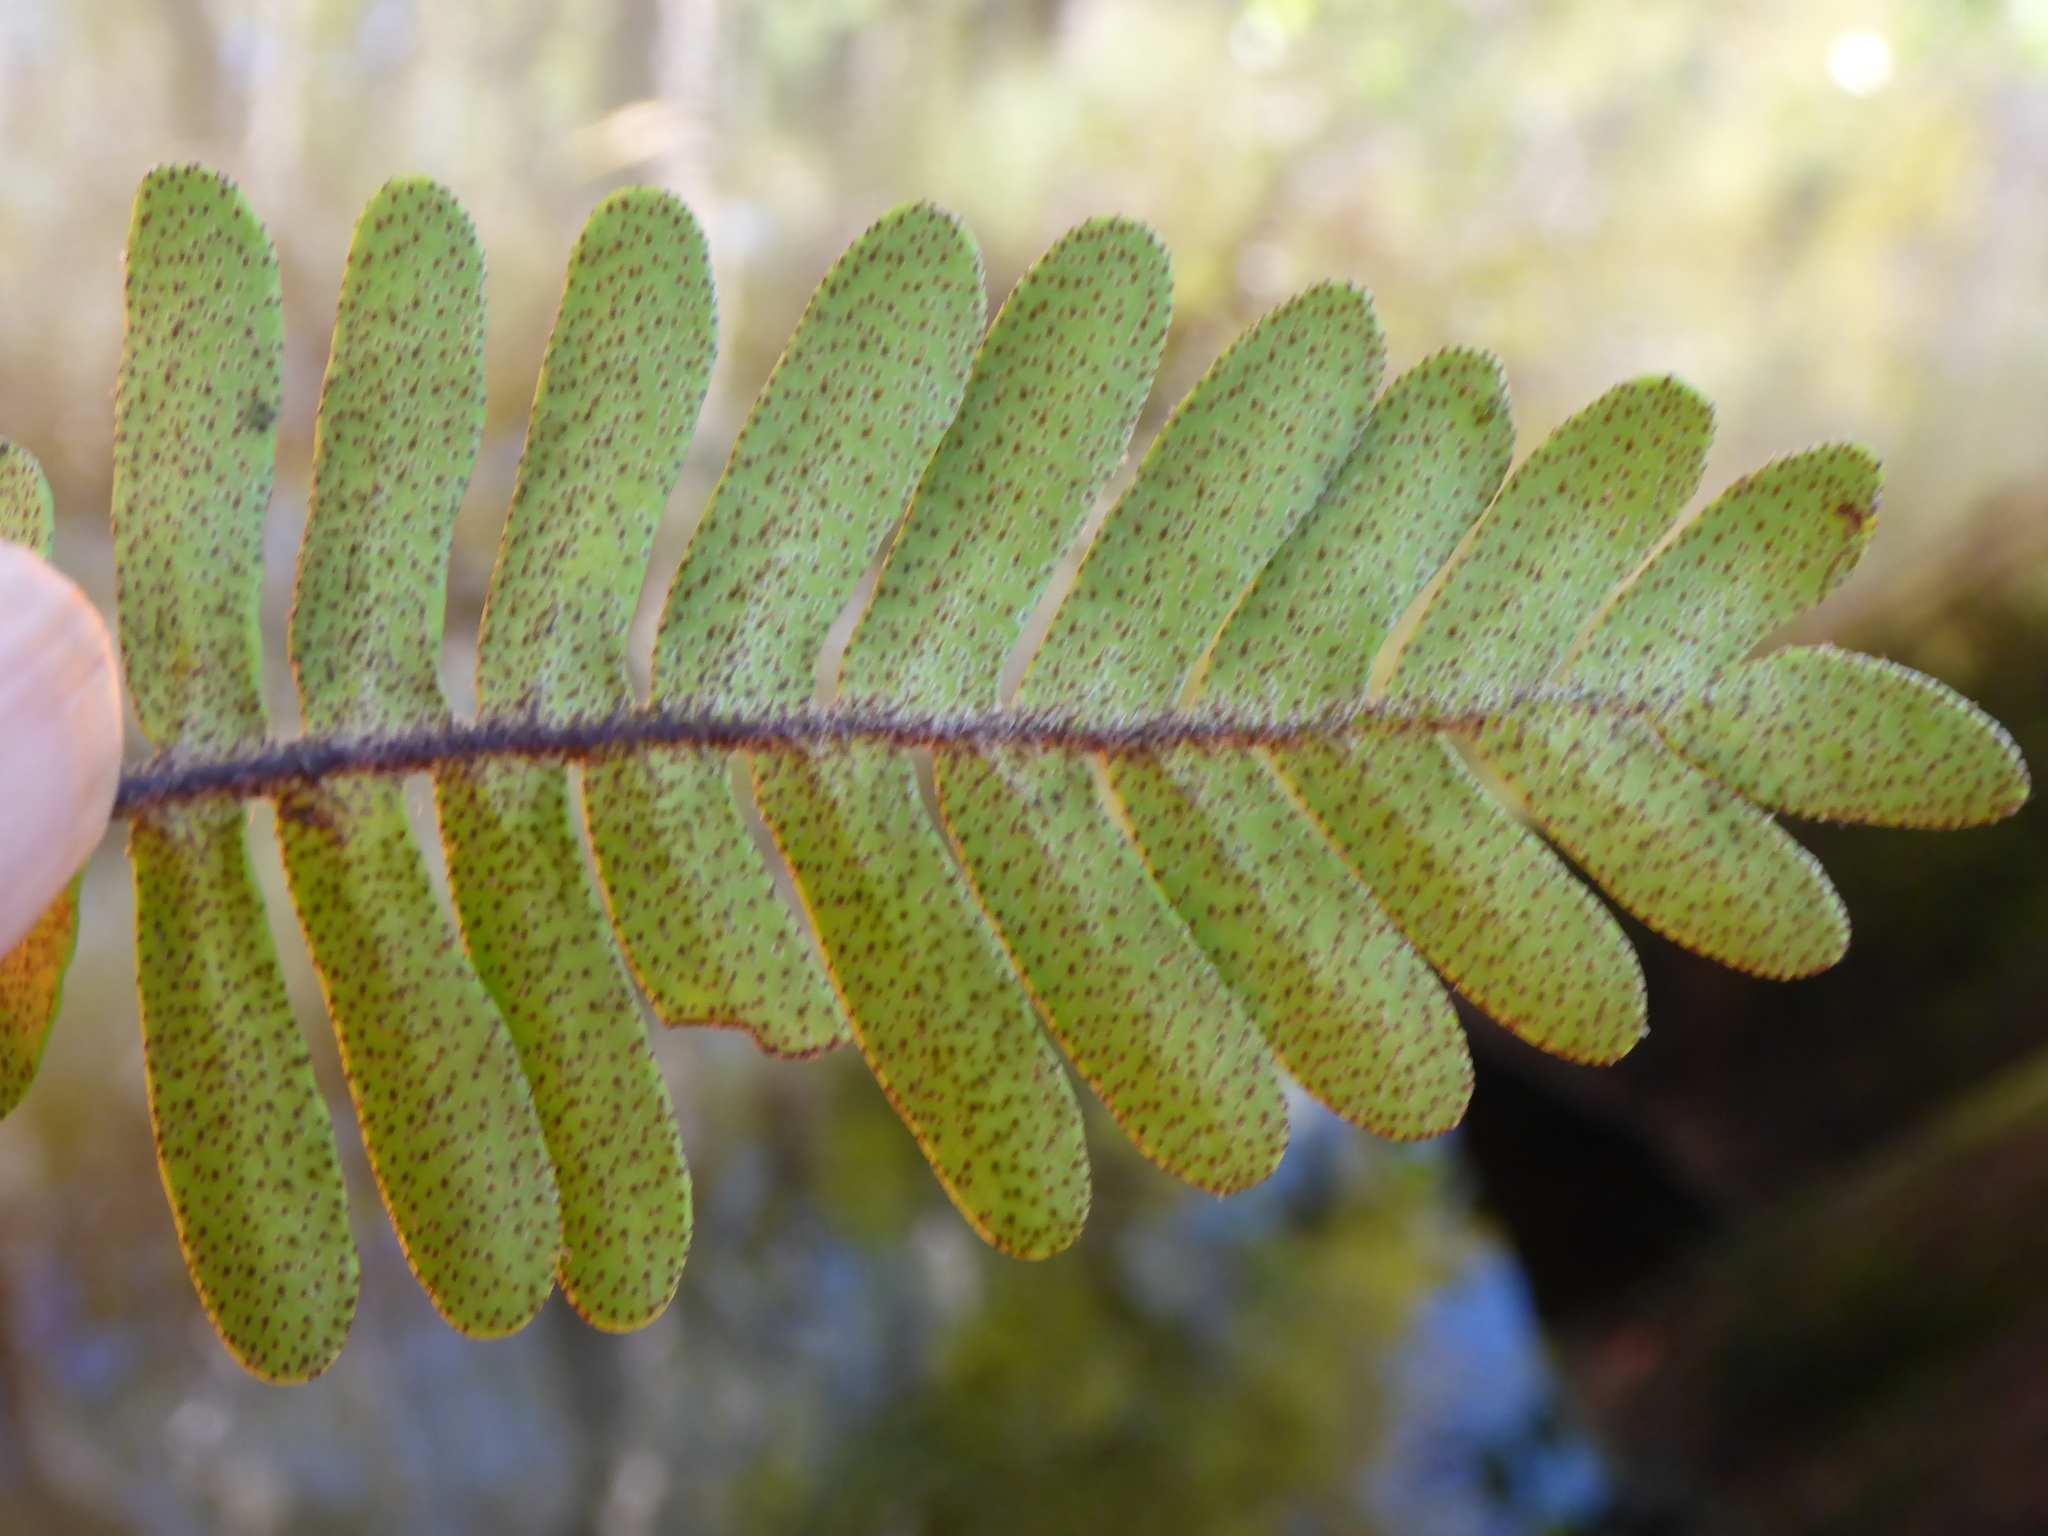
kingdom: Plantae
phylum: Tracheophyta
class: Polypodiopsida
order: Polypodiales
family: Polypodiaceae
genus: Pleopeltis
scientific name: Pleopeltis michauxiana
